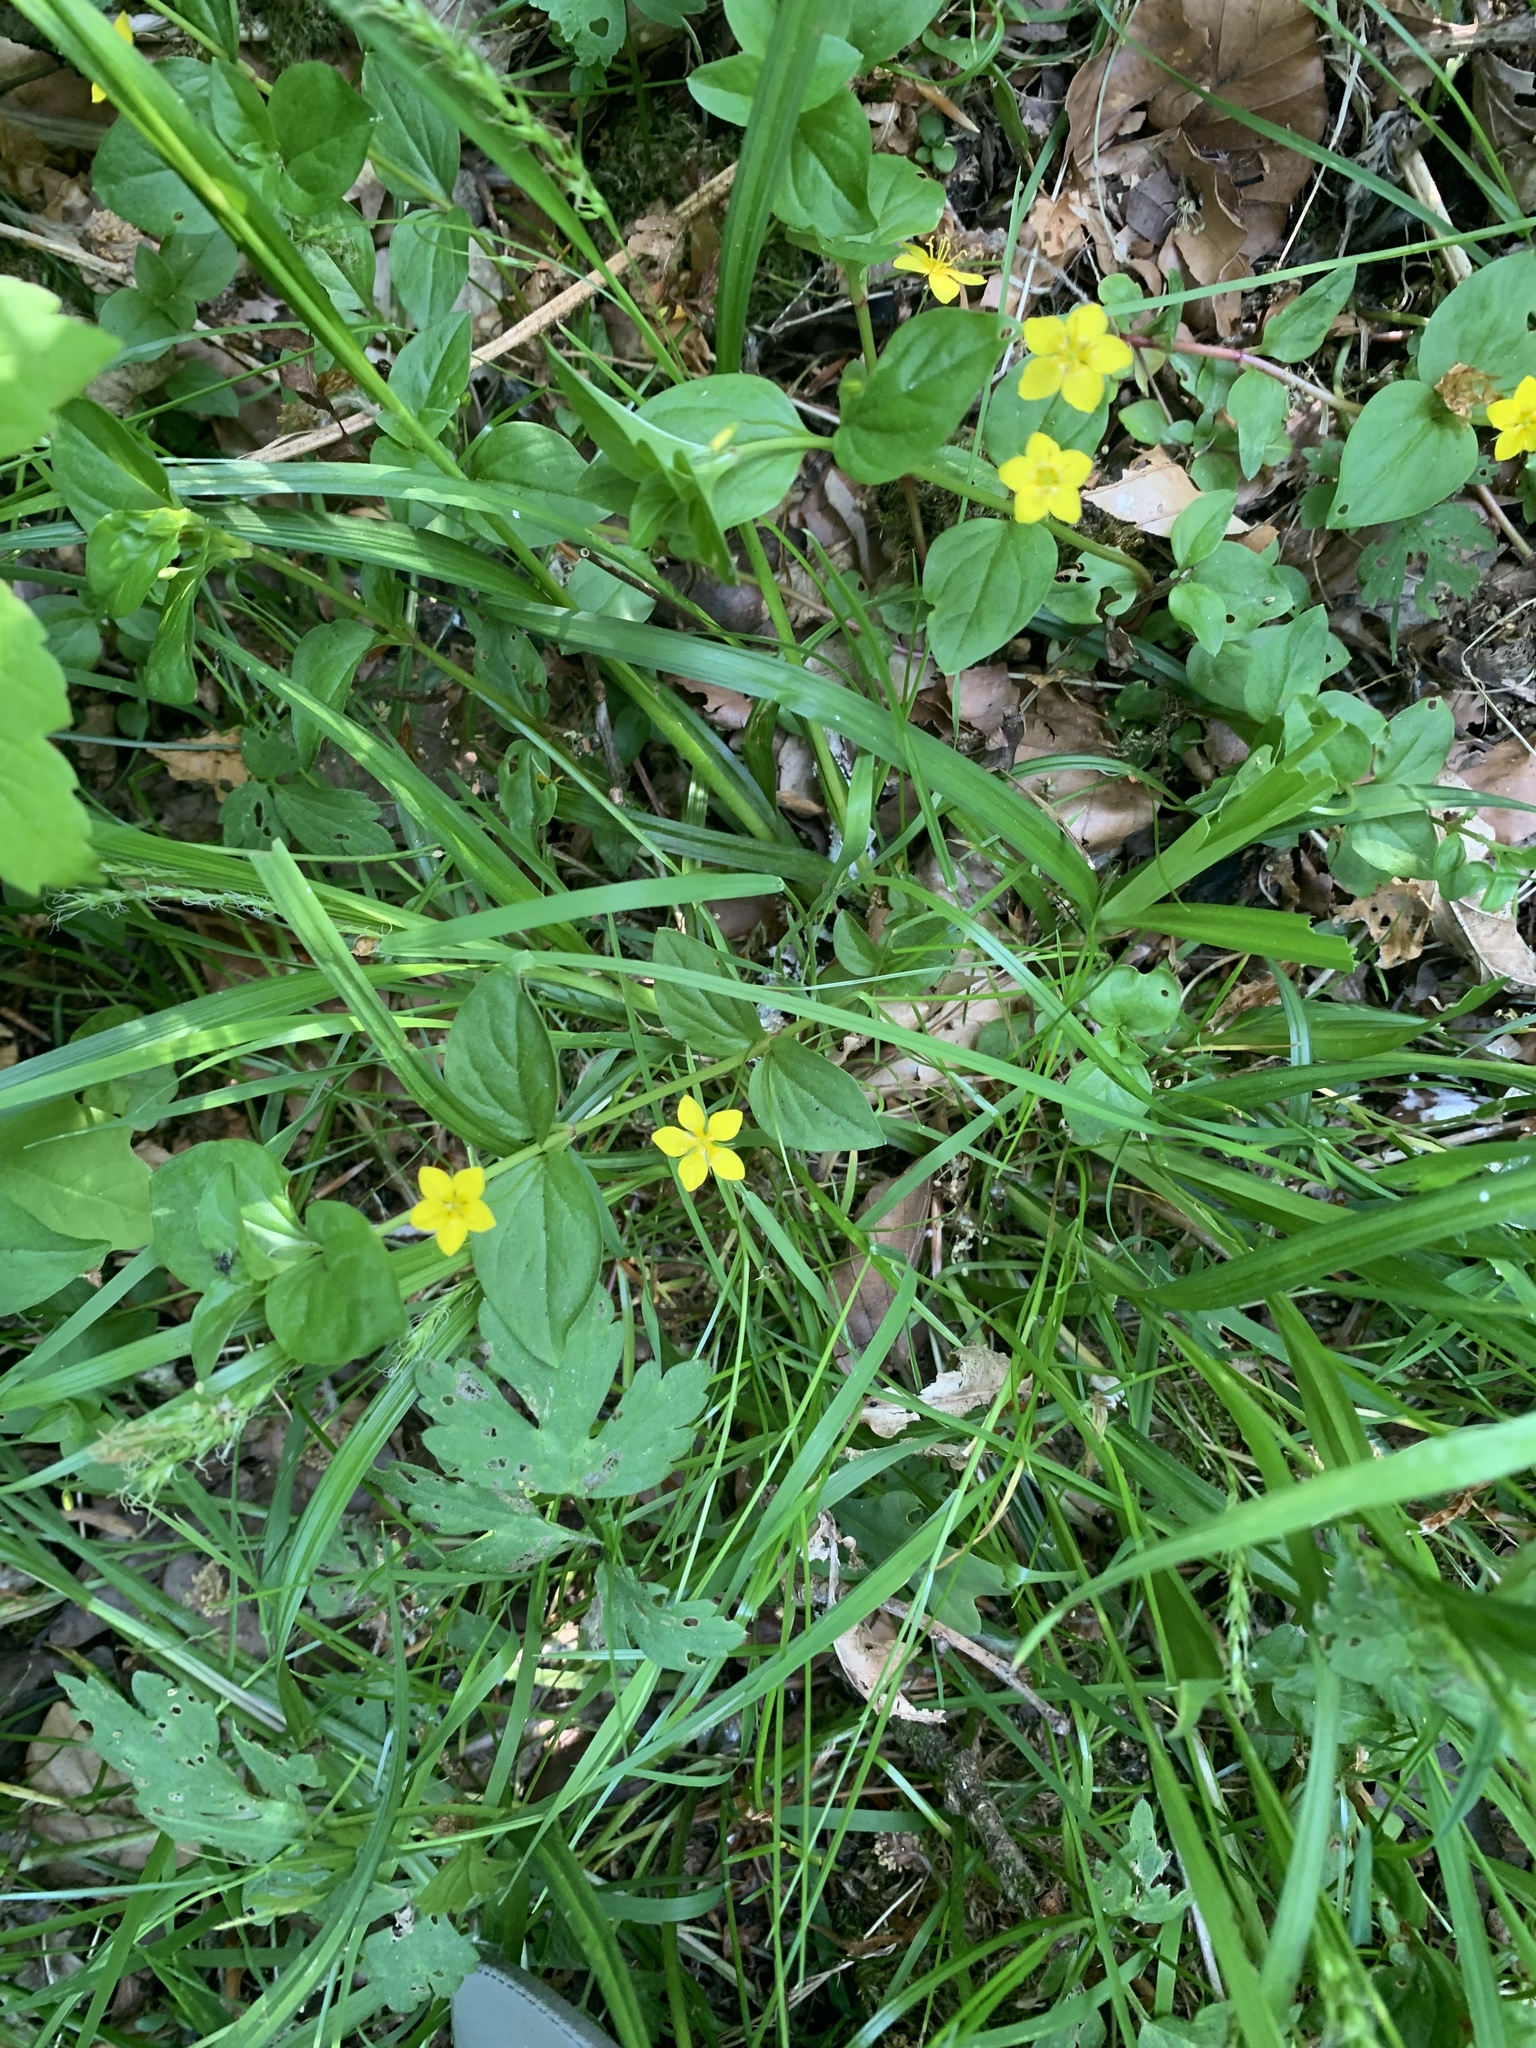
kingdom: Plantae
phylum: Tracheophyta
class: Magnoliopsida
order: Ericales
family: Primulaceae
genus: Lysimachia
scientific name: Lysimachia nemorum
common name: Yellow pimpernel
